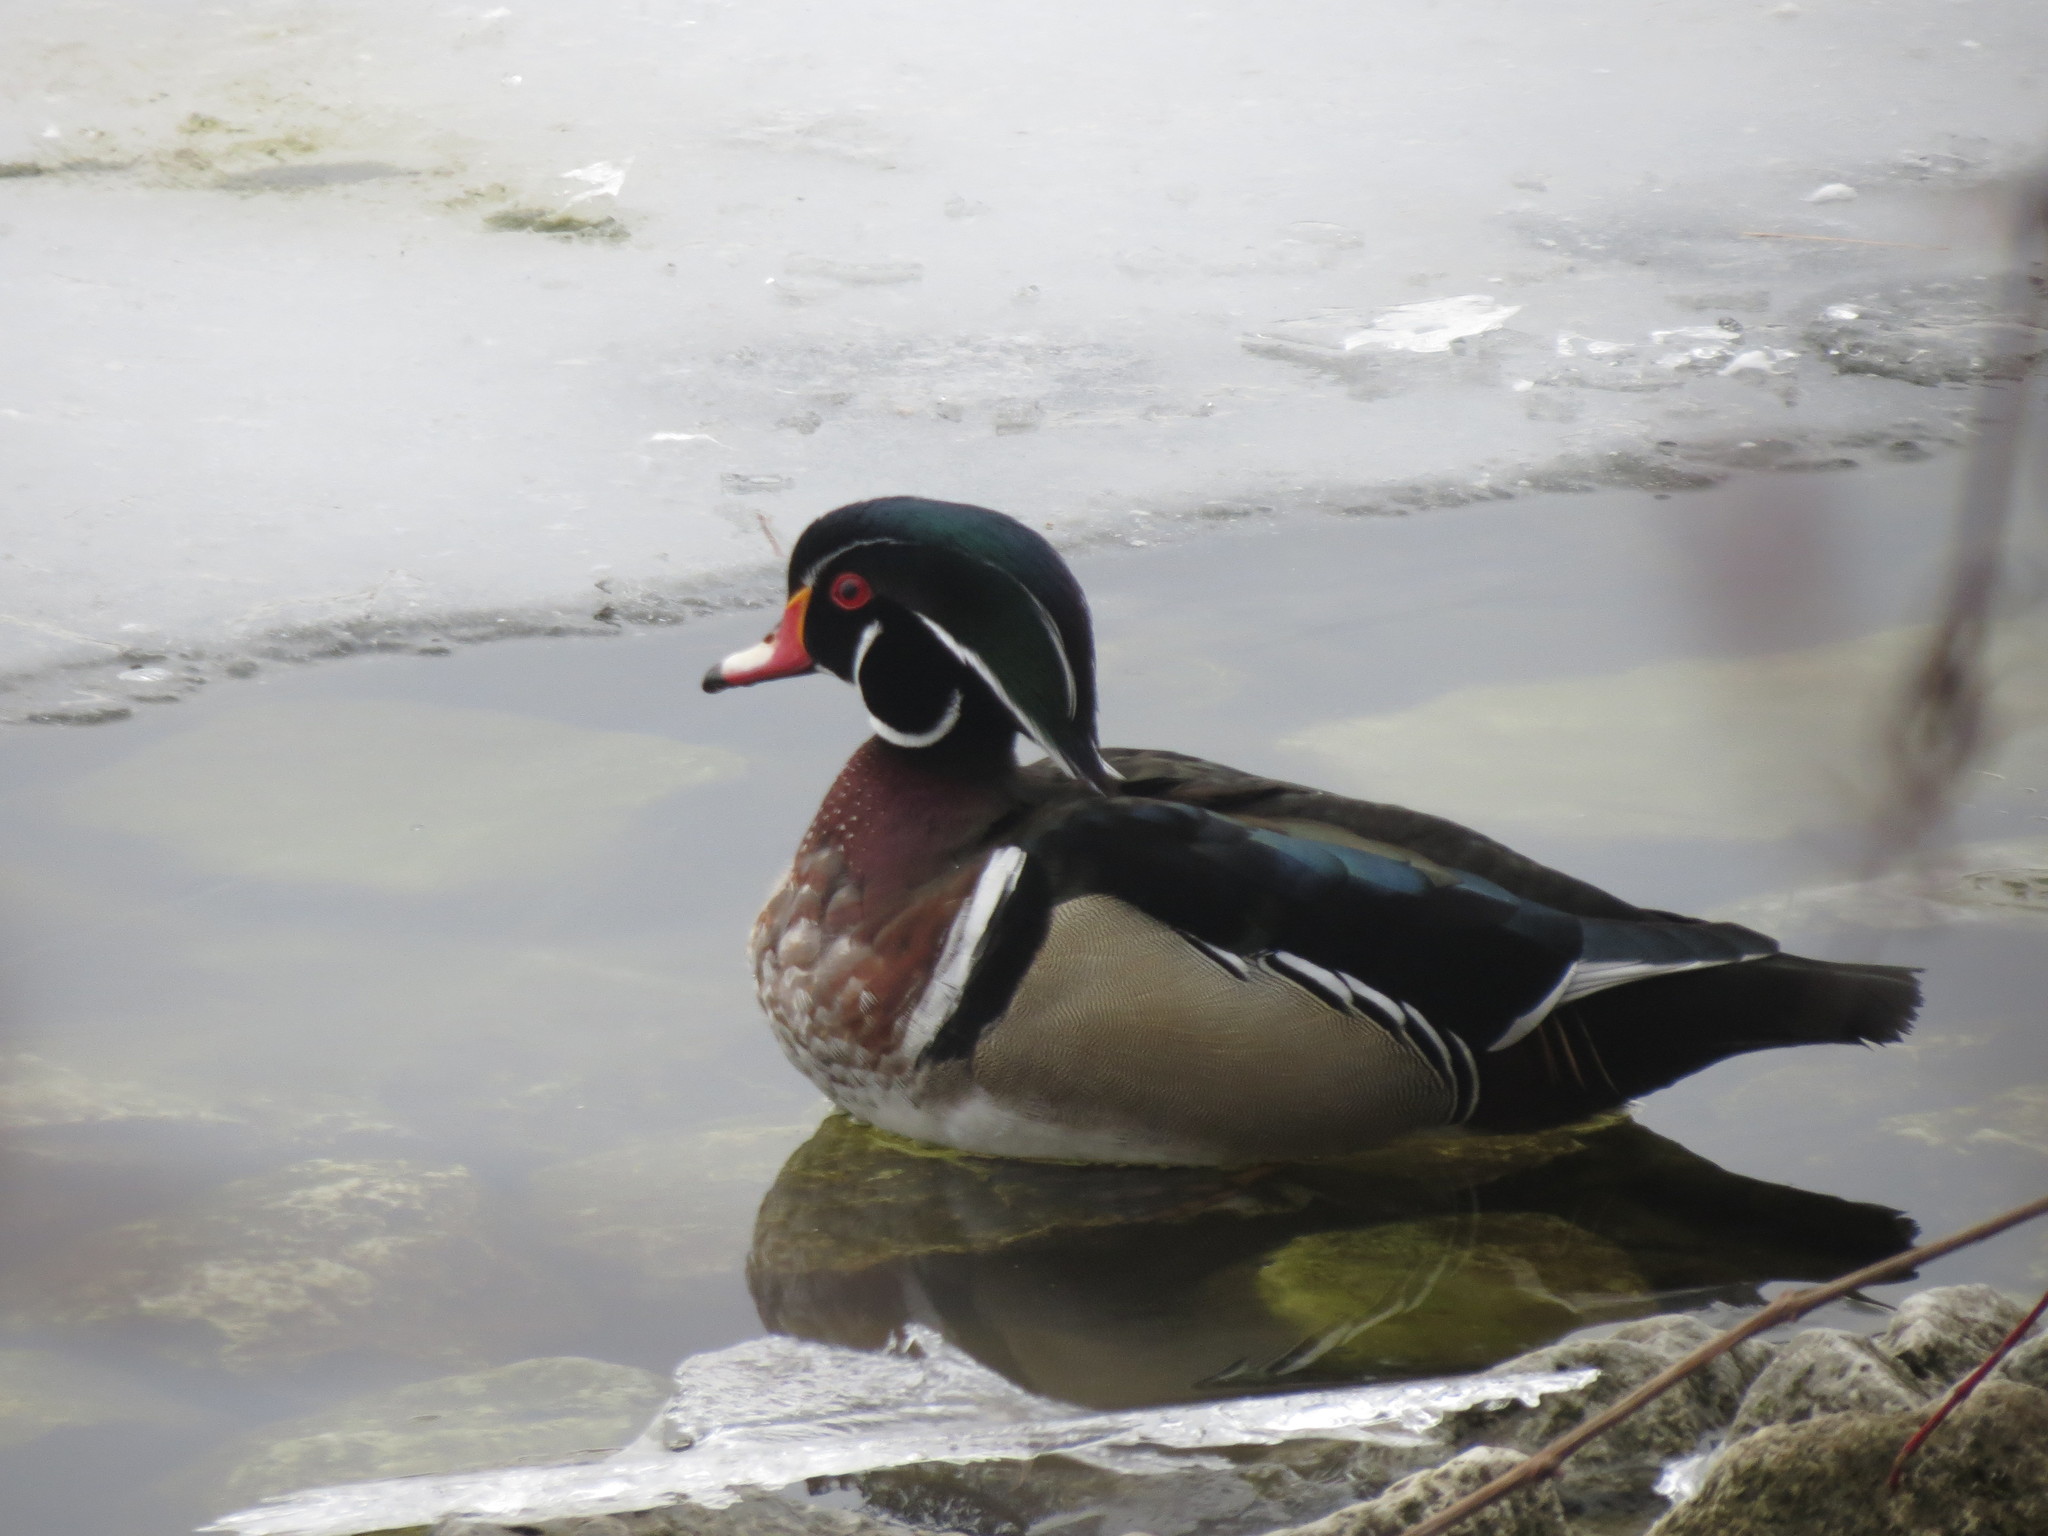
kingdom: Animalia
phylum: Chordata
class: Aves
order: Anseriformes
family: Anatidae
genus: Aix
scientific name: Aix sponsa
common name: Wood duck
